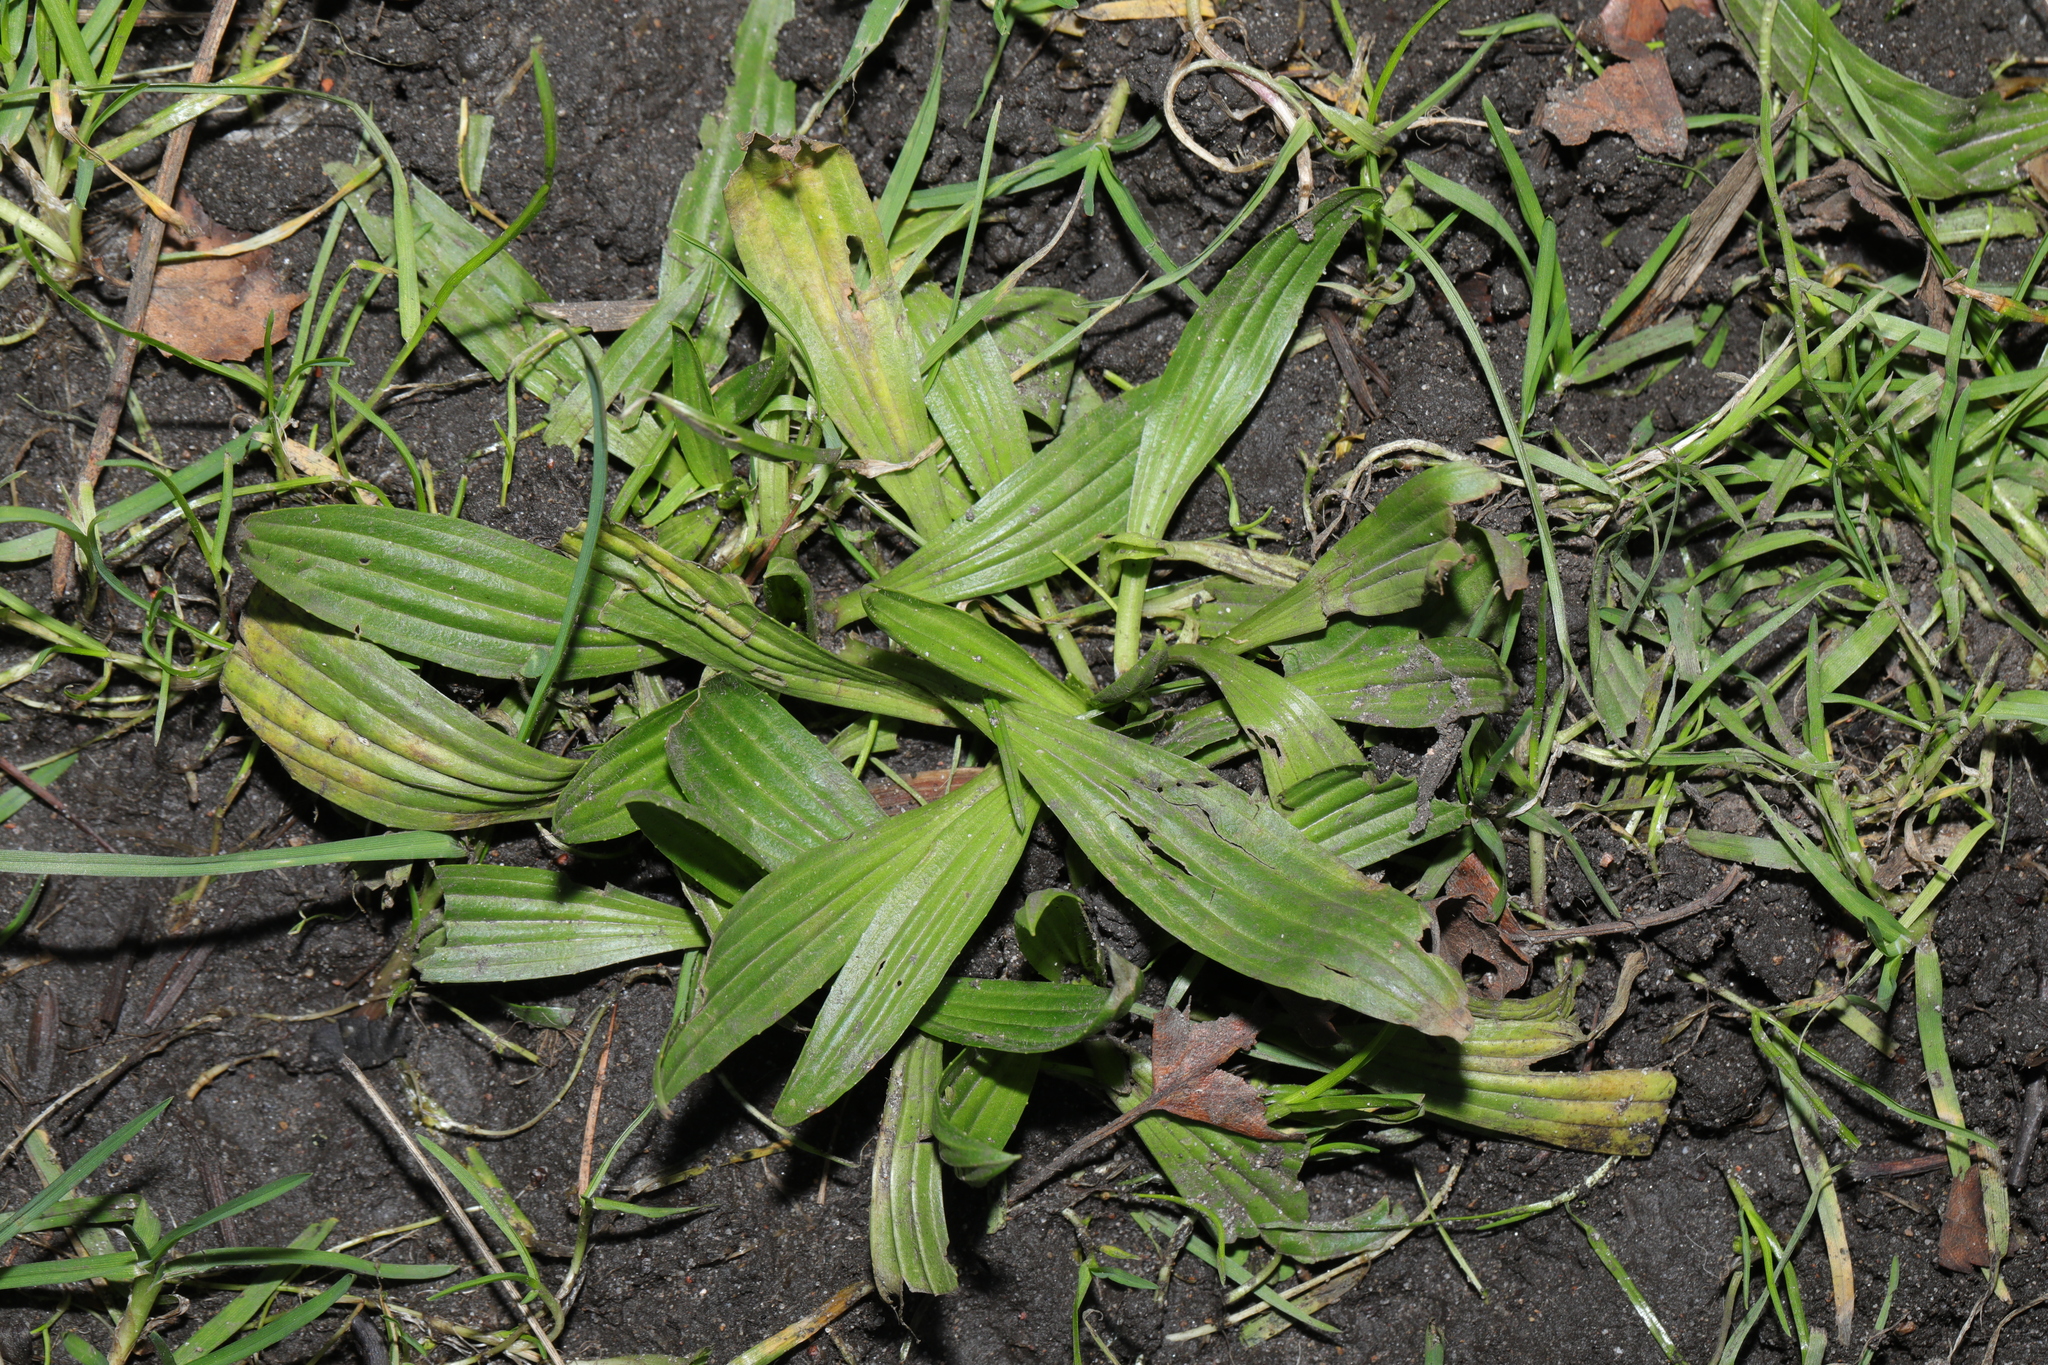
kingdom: Plantae
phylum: Tracheophyta
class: Magnoliopsida
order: Lamiales
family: Plantaginaceae
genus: Plantago
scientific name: Plantago lanceolata
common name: Ribwort plantain
